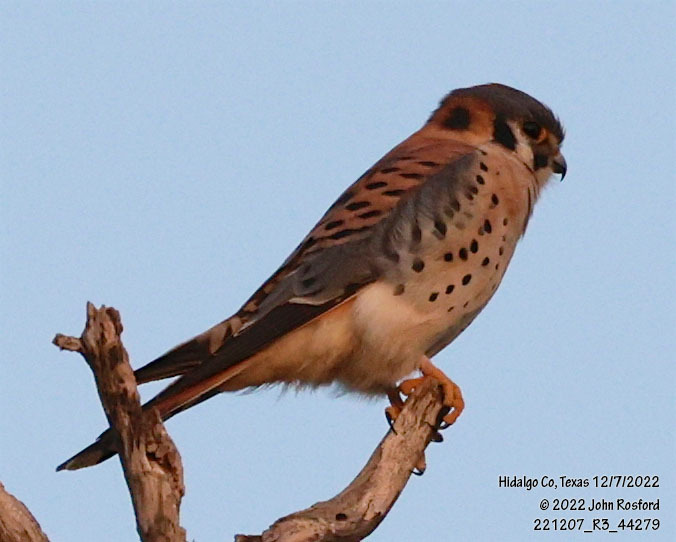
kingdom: Animalia
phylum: Chordata
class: Aves
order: Falconiformes
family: Falconidae
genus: Falco
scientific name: Falco sparverius
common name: American kestrel
